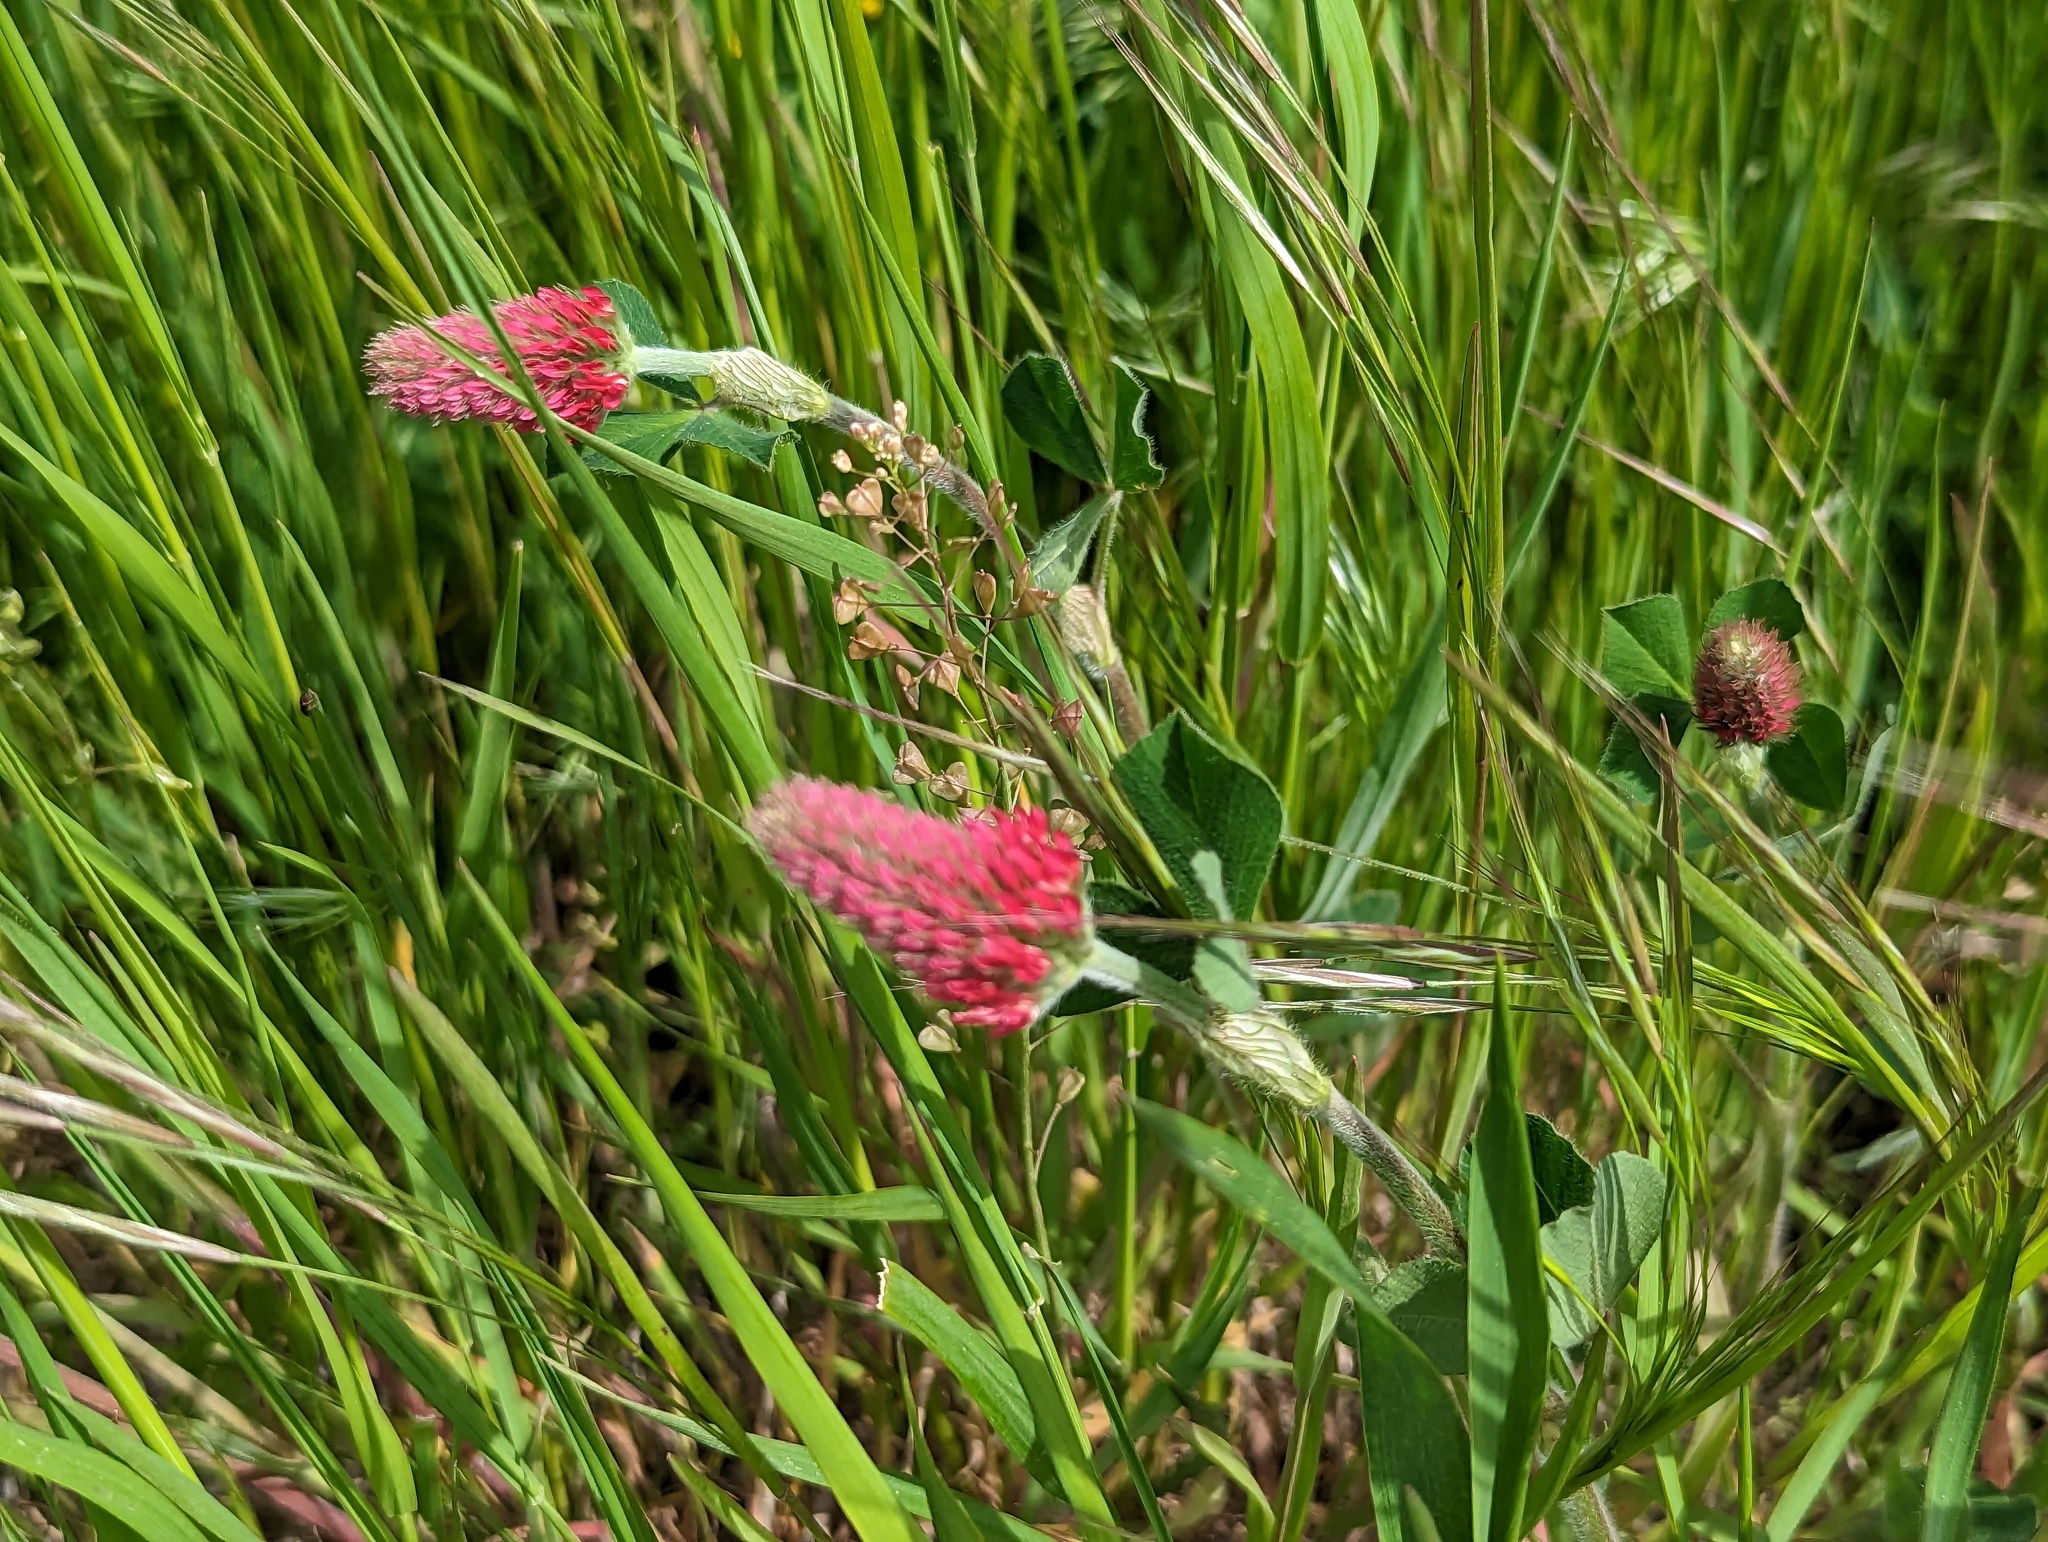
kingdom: Plantae
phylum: Tracheophyta
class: Magnoliopsida
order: Fabales
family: Fabaceae
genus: Trifolium
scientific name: Trifolium incarnatum
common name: Crimson clover
